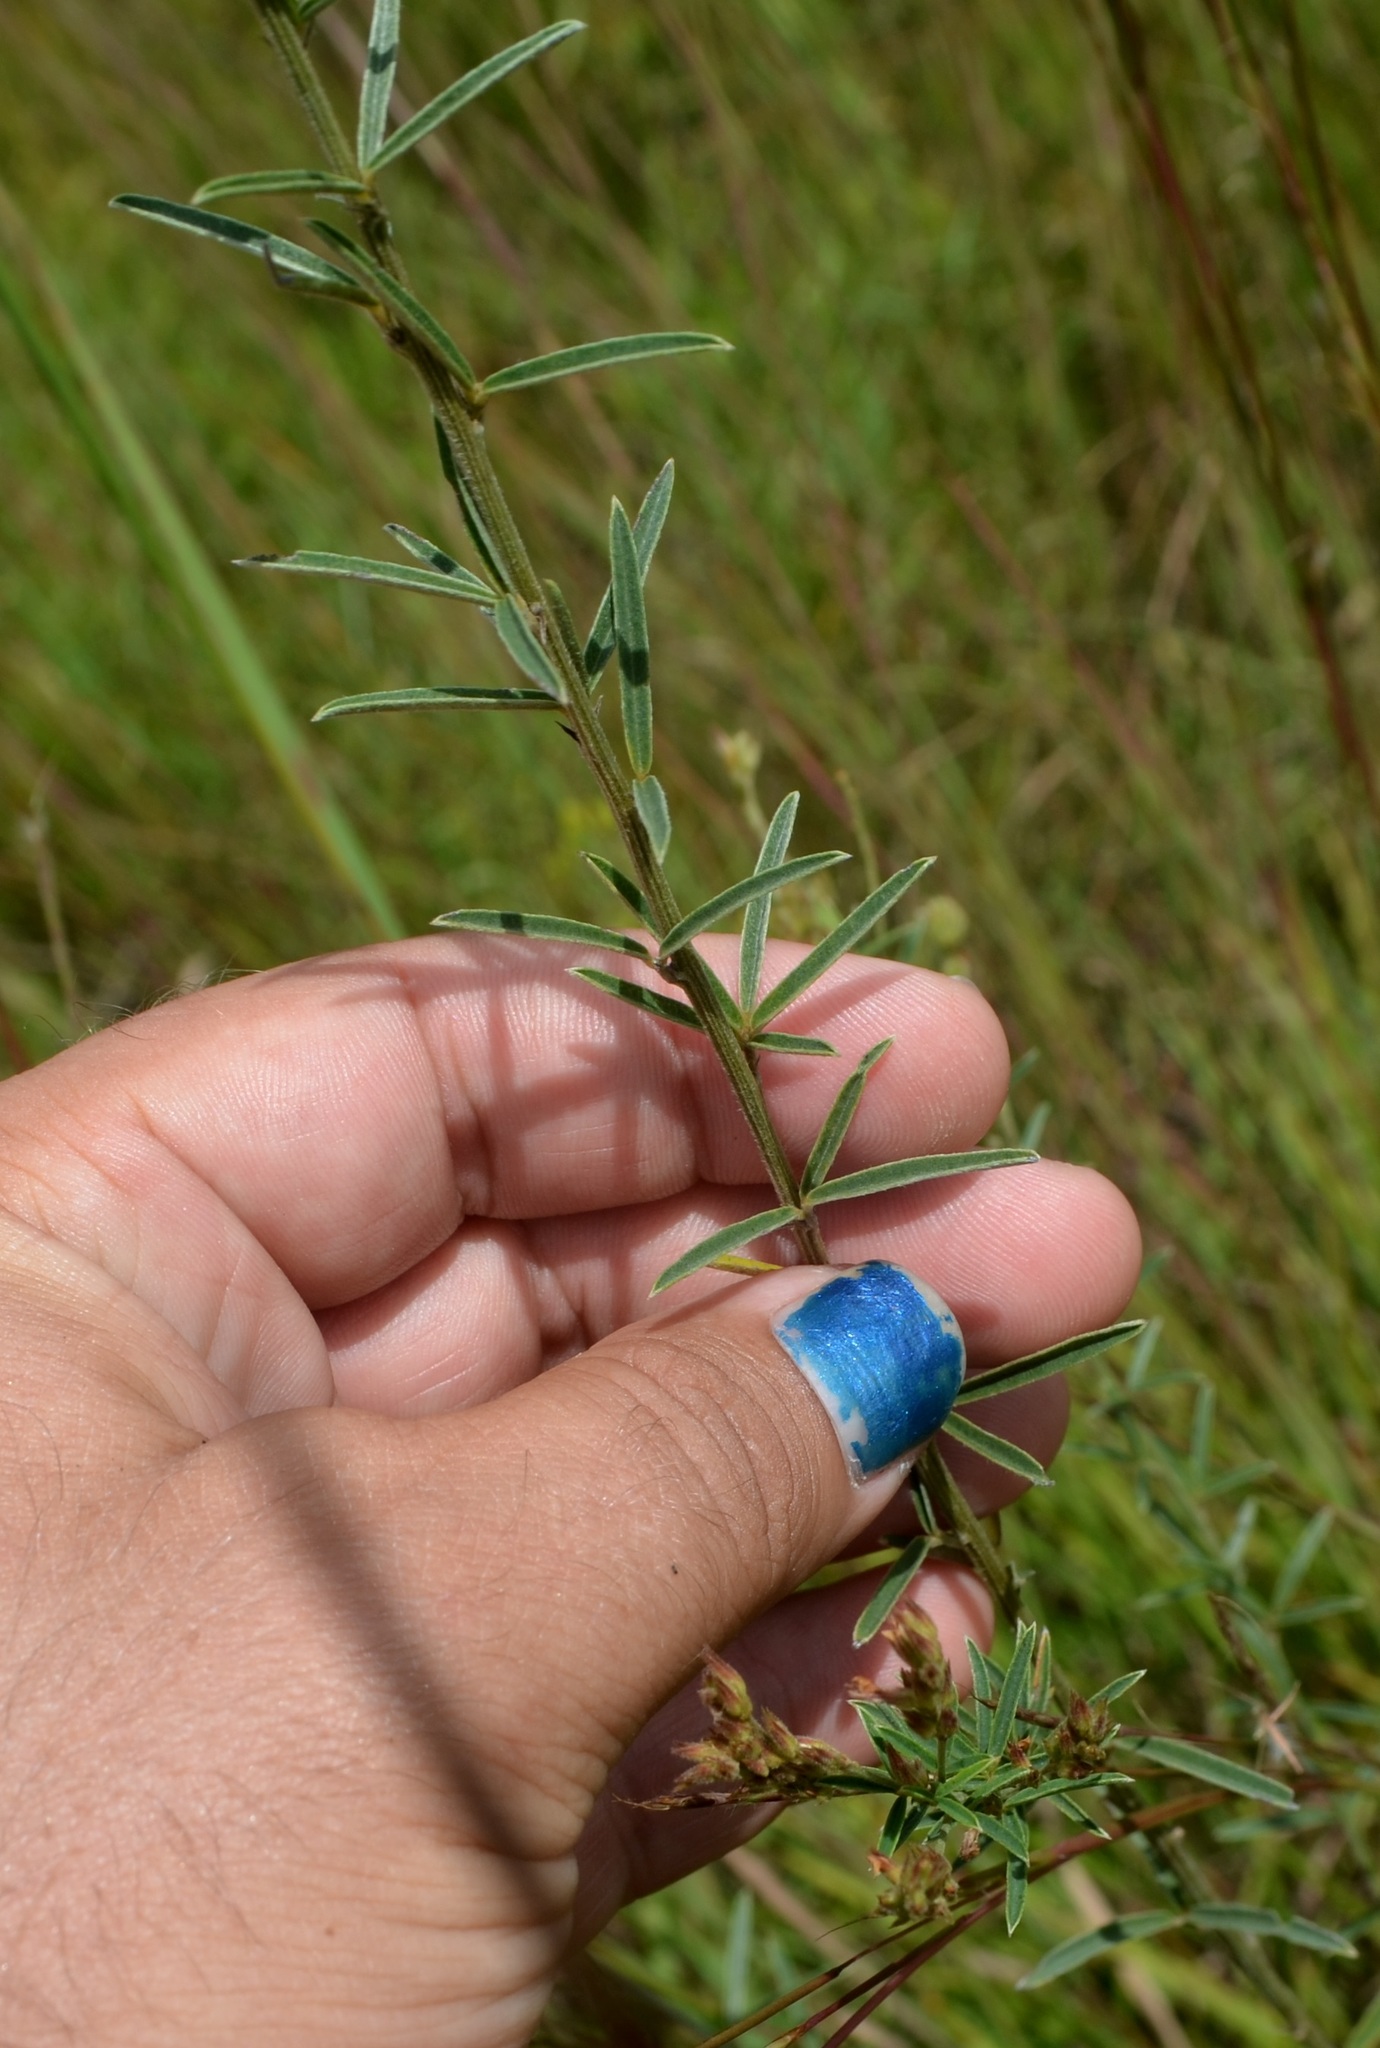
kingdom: Plantae
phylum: Tracheophyta
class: Magnoliopsida
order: Fabales
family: Fabaceae
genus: Lespedeza
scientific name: Lespedeza leptostachya
